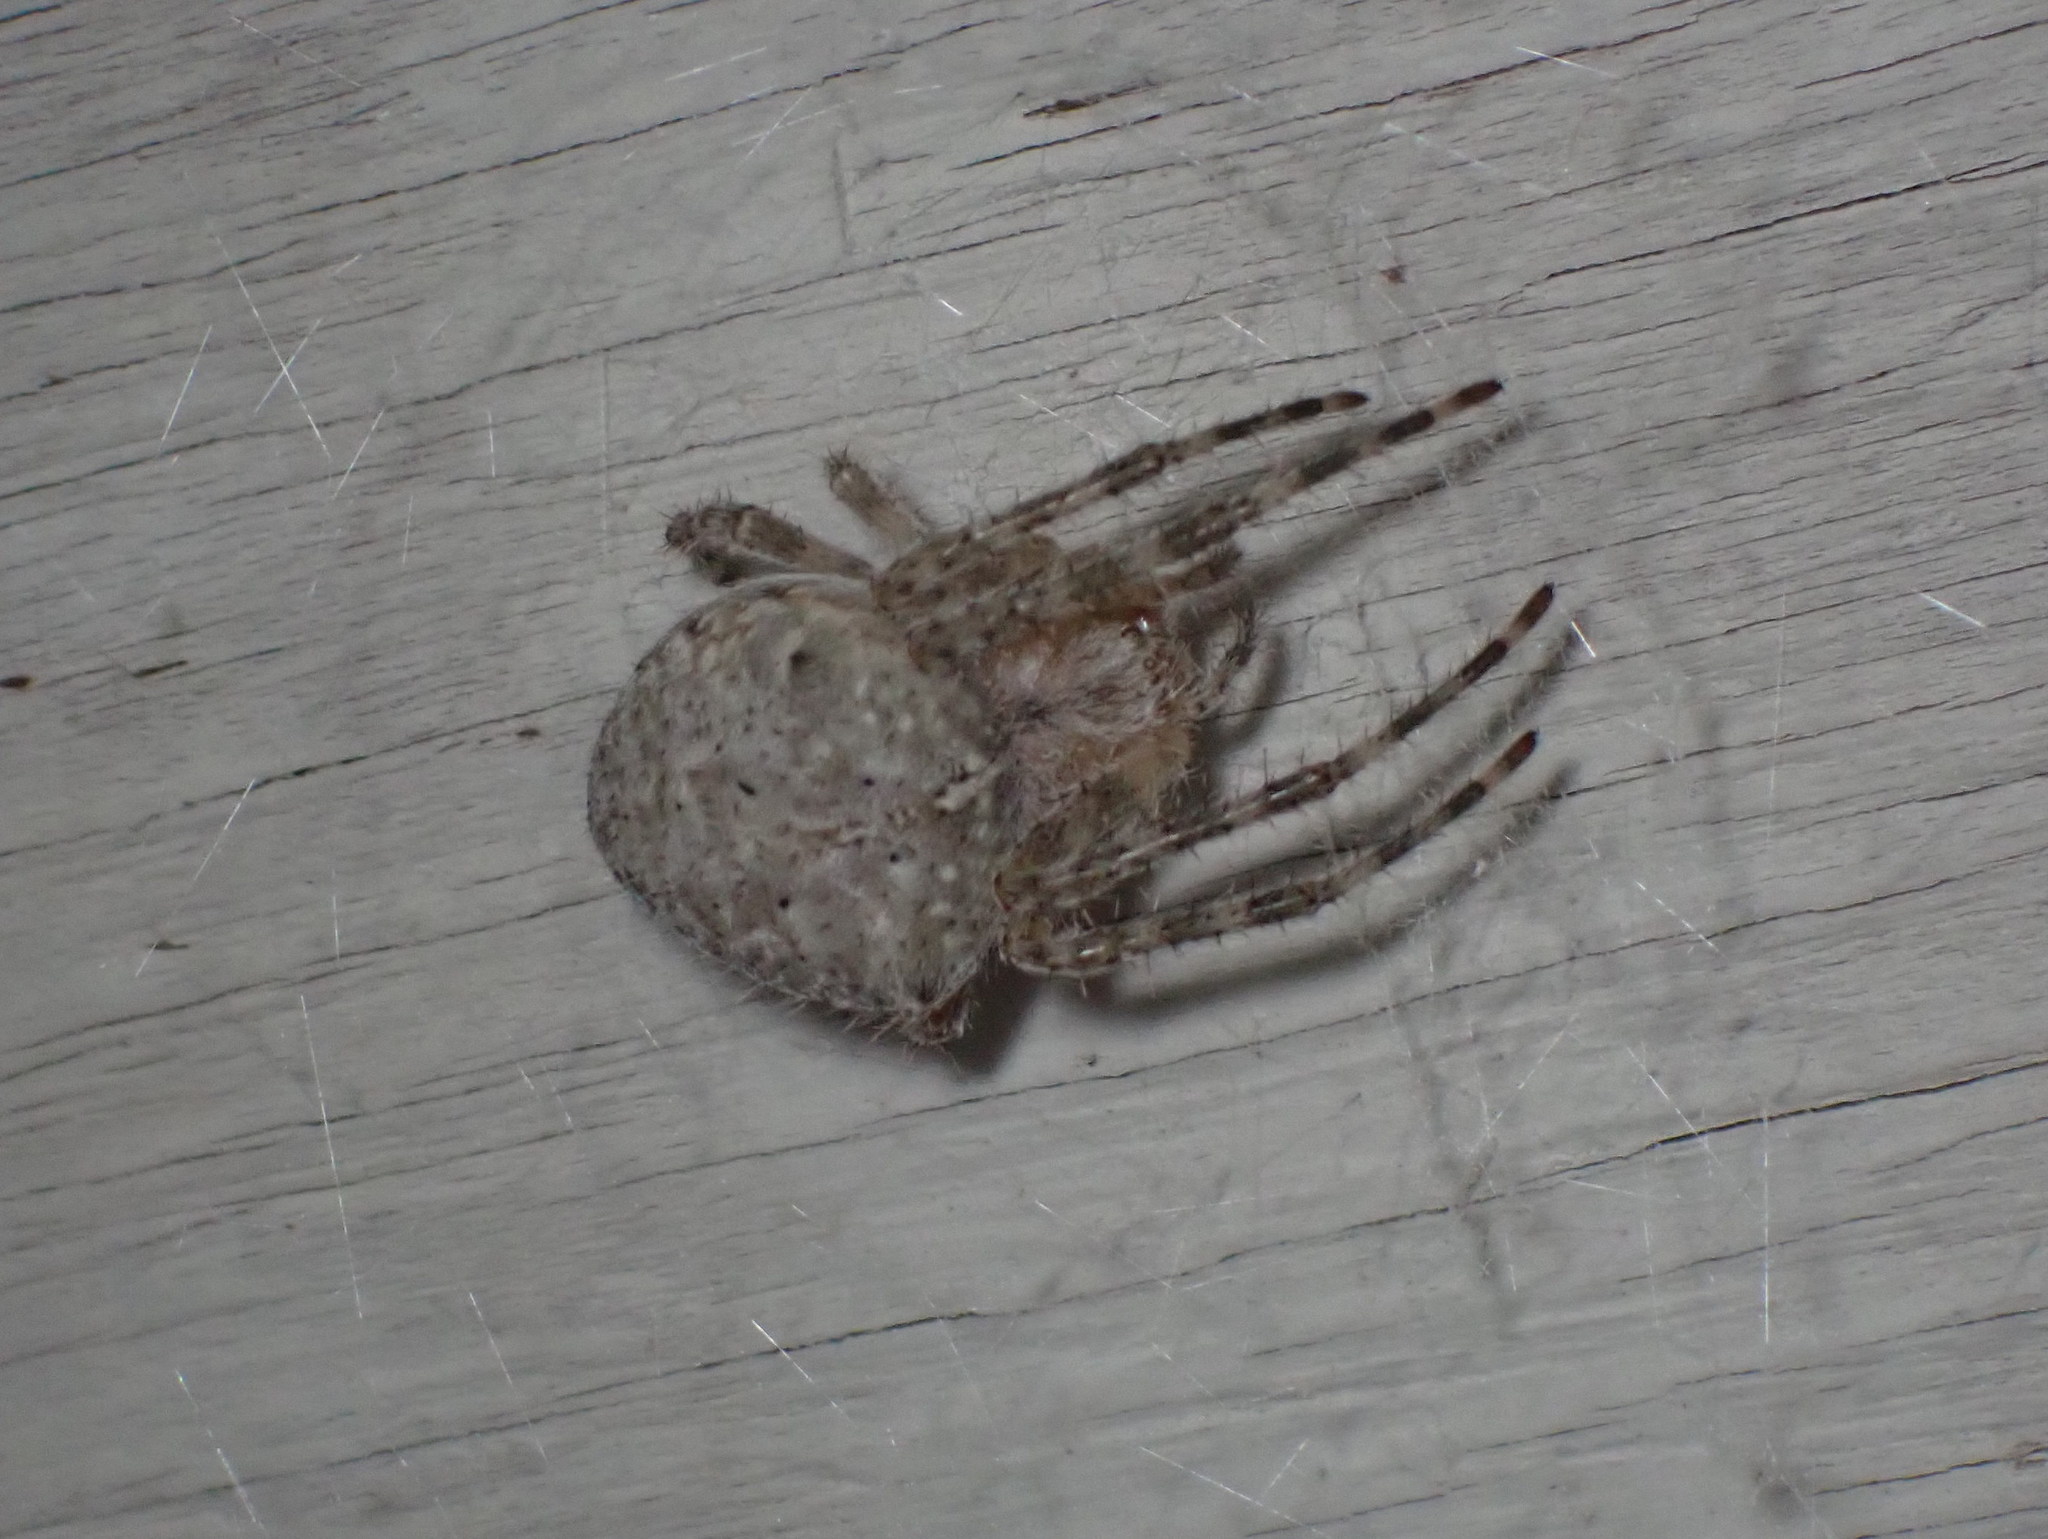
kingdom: Animalia
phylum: Arthropoda
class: Arachnida
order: Araneae
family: Araneidae
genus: Araneus
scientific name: Araneus cavaticus
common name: Barn orbweaver
